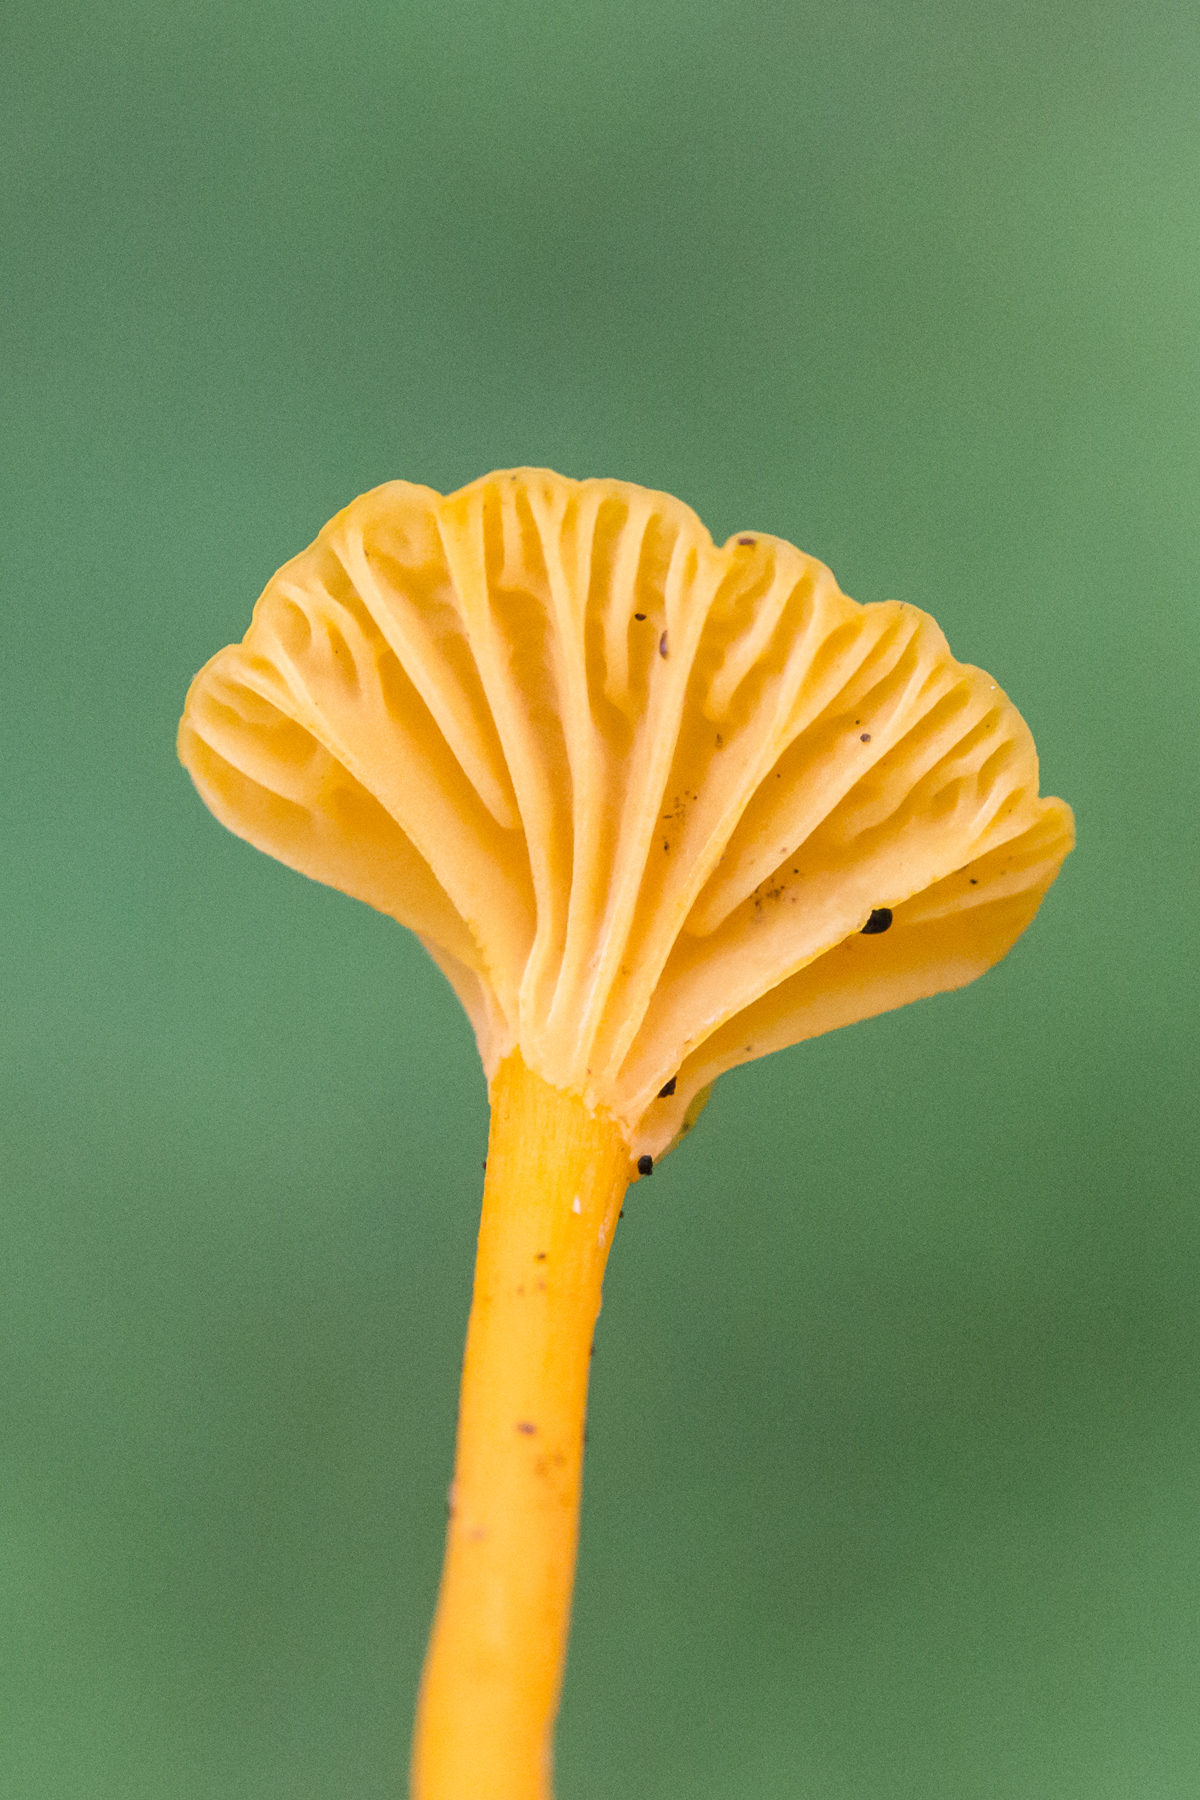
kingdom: Fungi
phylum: Basidiomycota
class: Agaricomycetes
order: Cantharellales
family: Hydnaceae
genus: Cantharellus
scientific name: Cantharellus minor
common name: Small chanterelle
